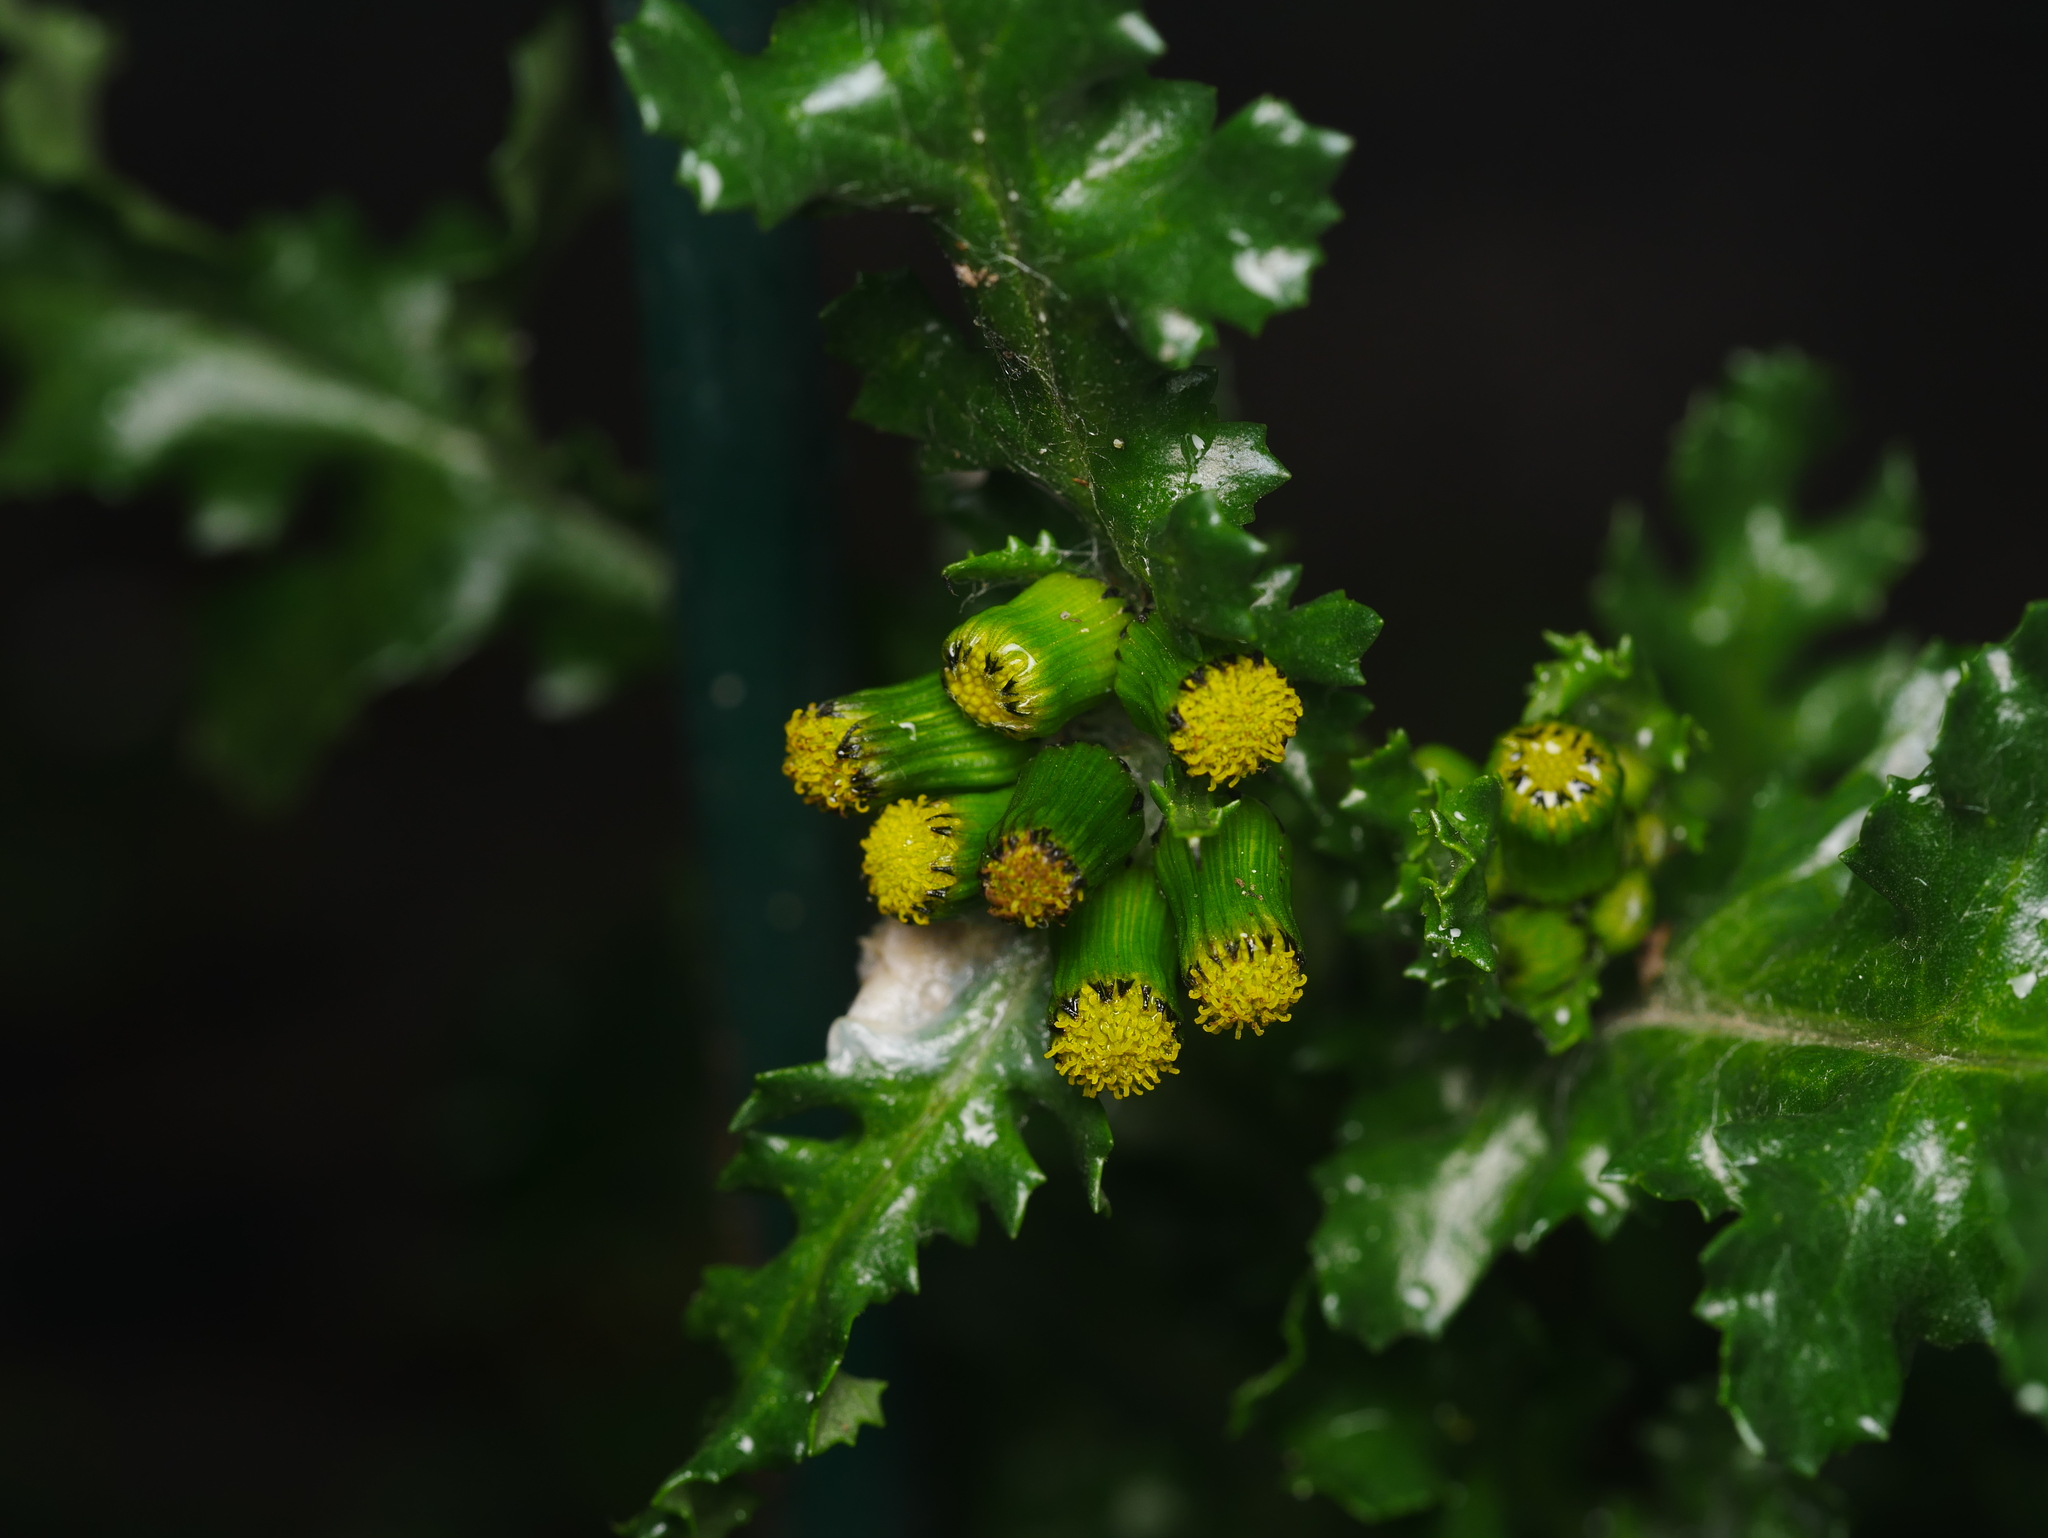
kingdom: Plantae
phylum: Tracheophyta
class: Magnoliopsida
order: Asterales
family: Asteraceae
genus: Senecio
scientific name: Senecio vulgaris
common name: Old-man-in-the-spring
